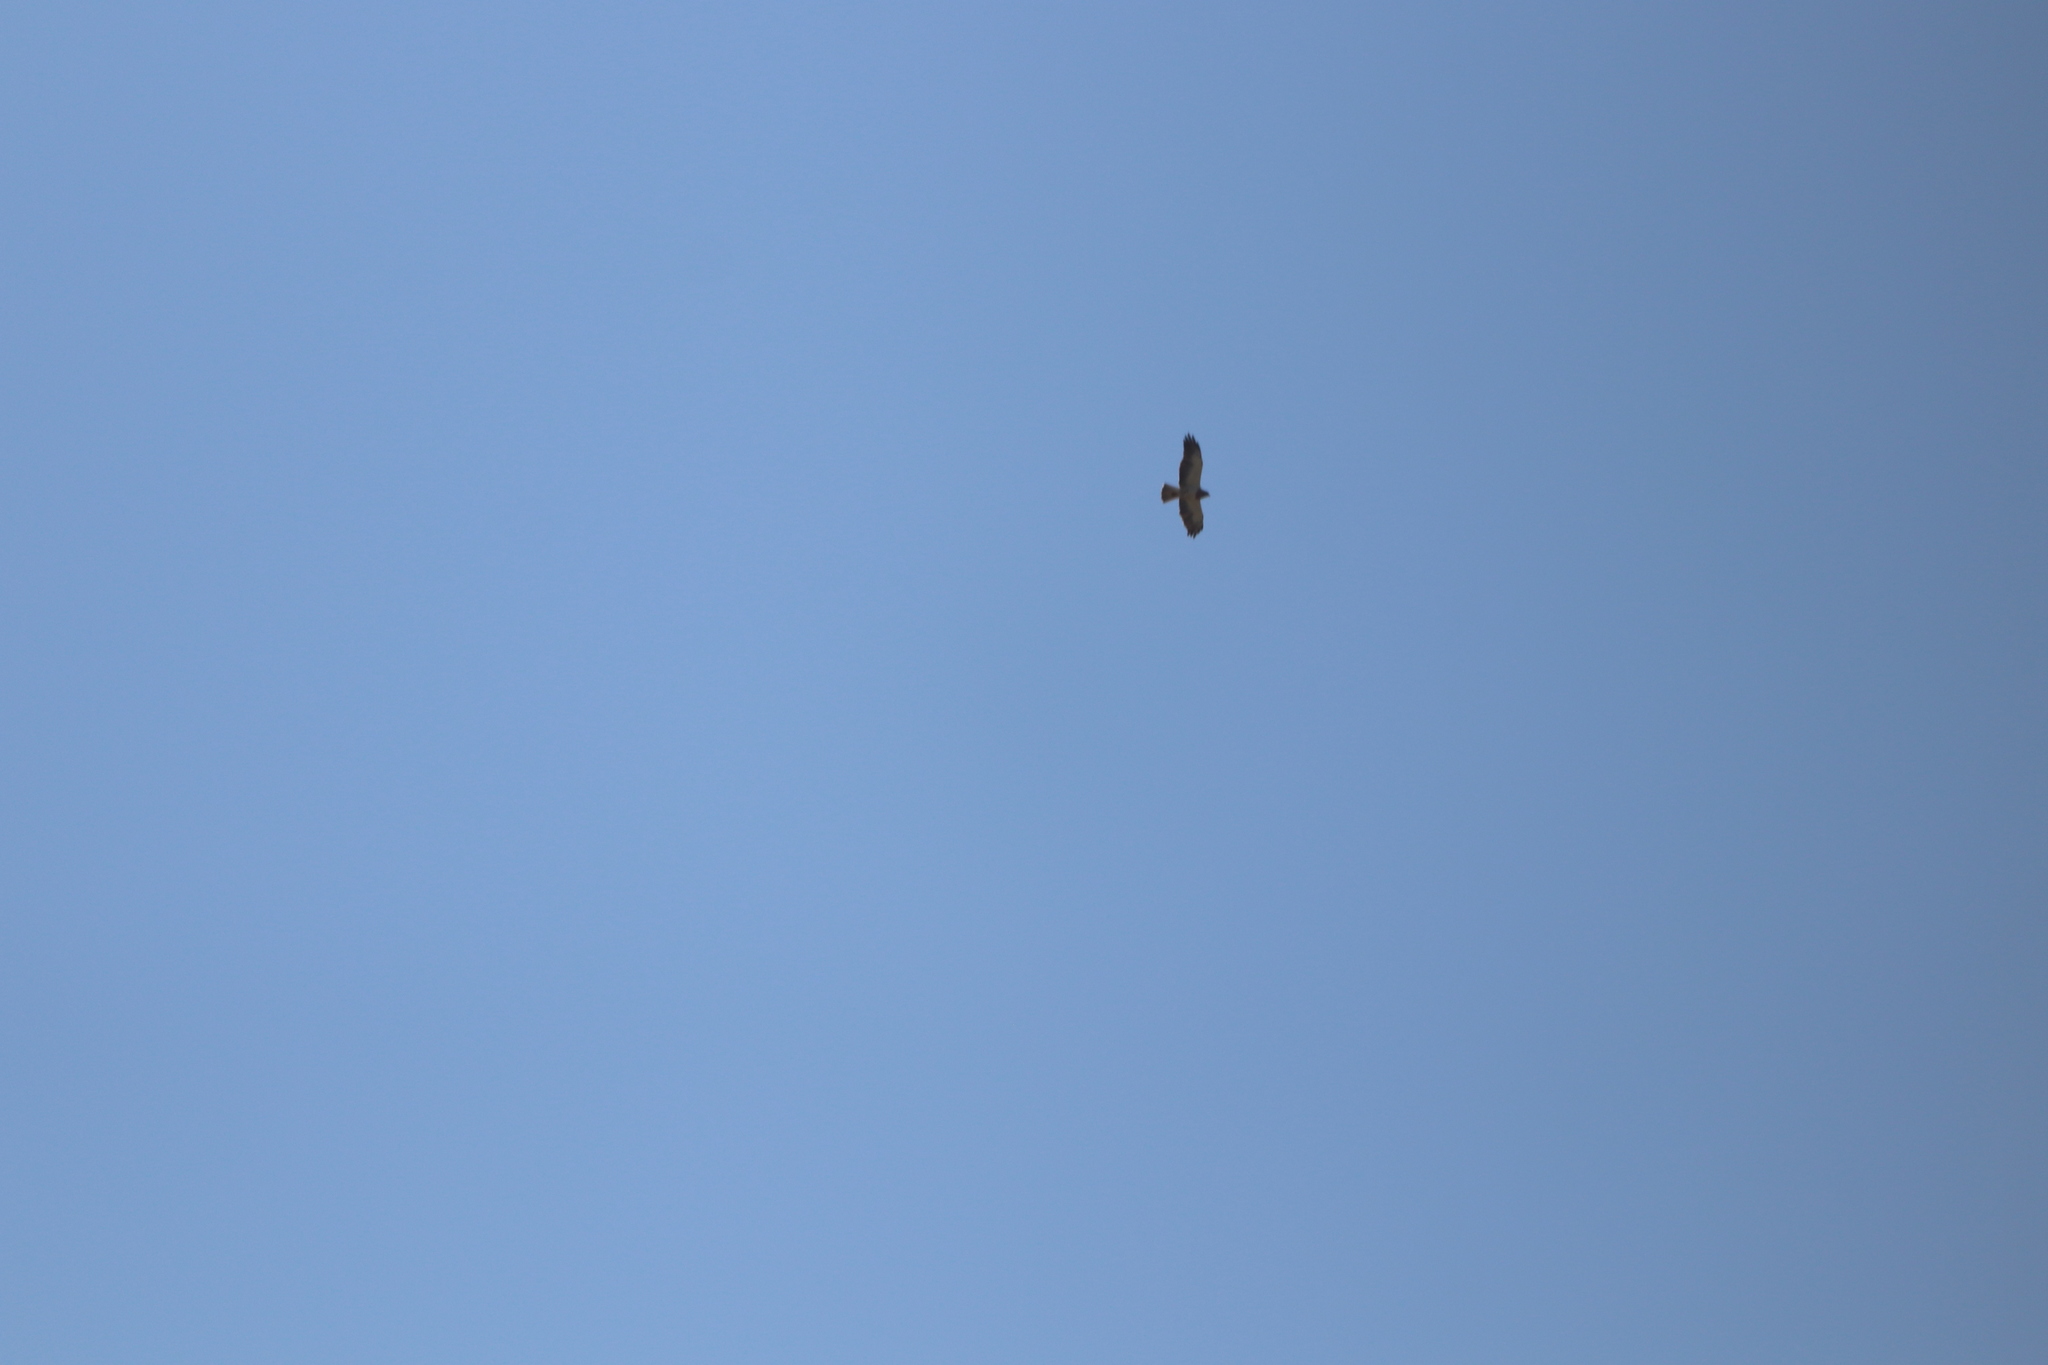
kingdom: Animalia
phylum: Chordata
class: Aves
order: Accipitriformes
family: Accipitridae
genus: Buteo
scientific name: Buteo swainsoni
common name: Swainson's hawk
